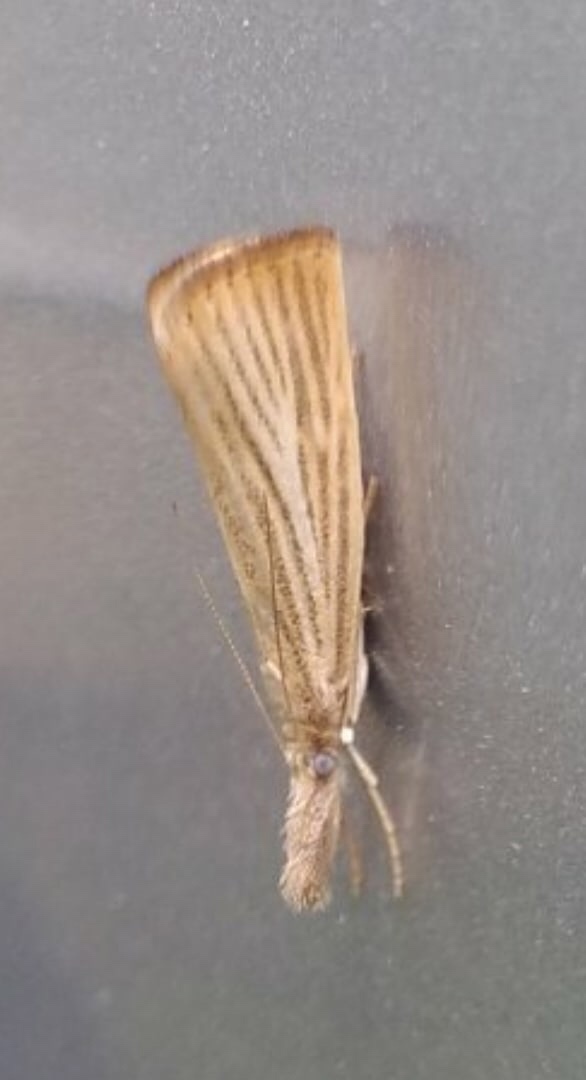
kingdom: Animalia
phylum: Arthropoda
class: Insecta
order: Lepidoptera
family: Crambidae
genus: Agriphila
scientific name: Agriphila straminella
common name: Straw grass-veneer
